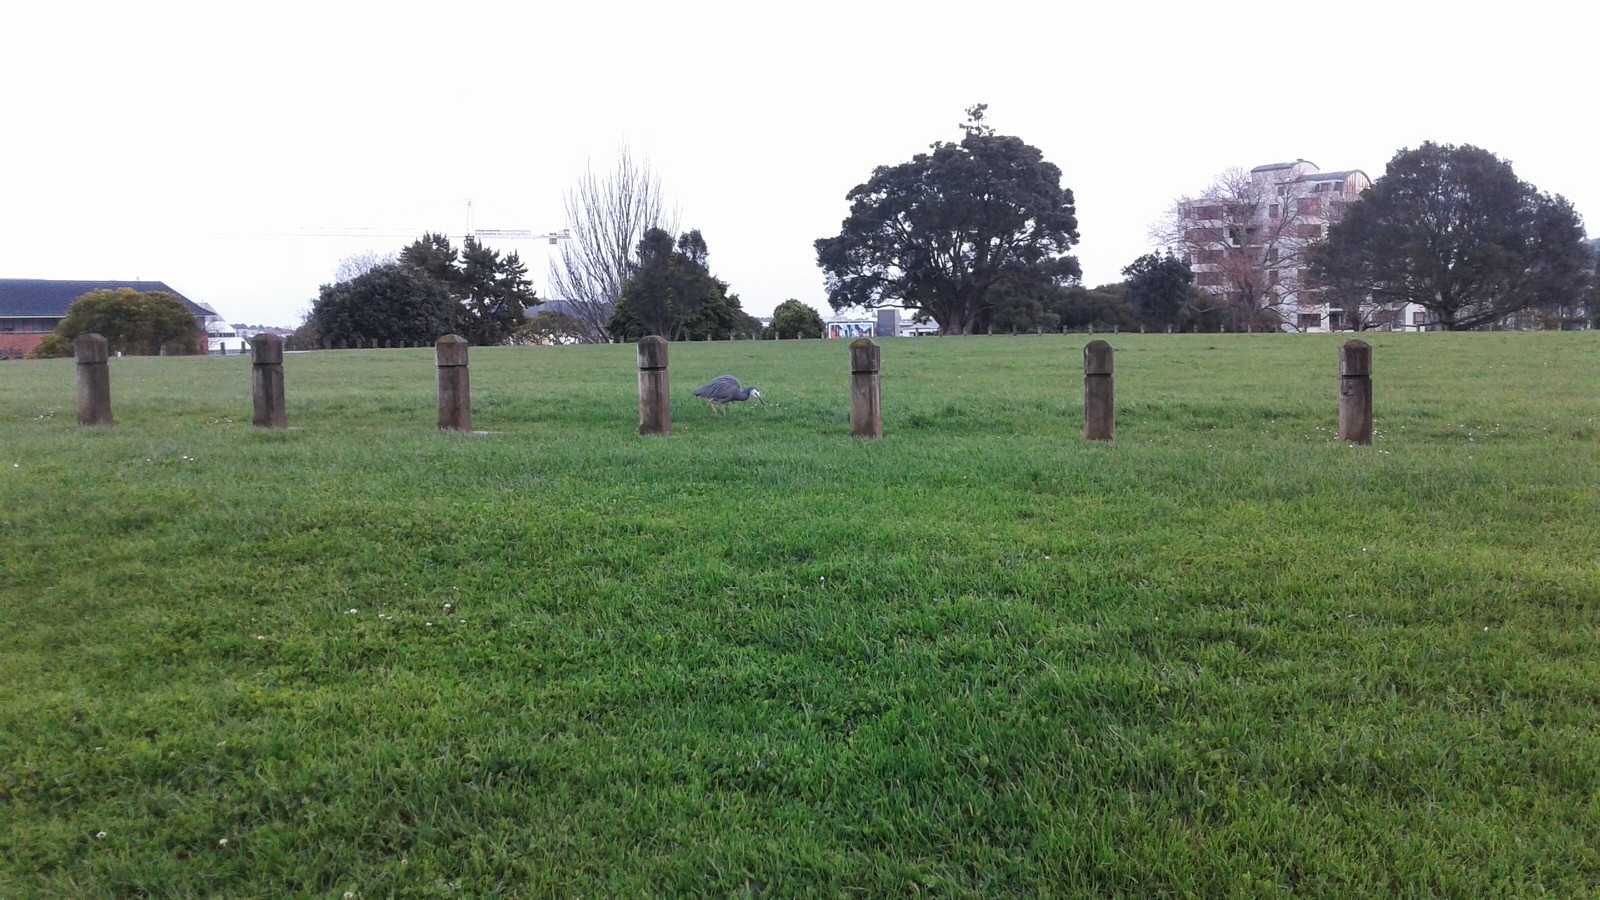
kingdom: Animalia
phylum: Chordata
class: Aves
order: Pelecaniformes
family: Ardeidae
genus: Egretta
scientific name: Egretta novaehollandiae
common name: White-faced heron
